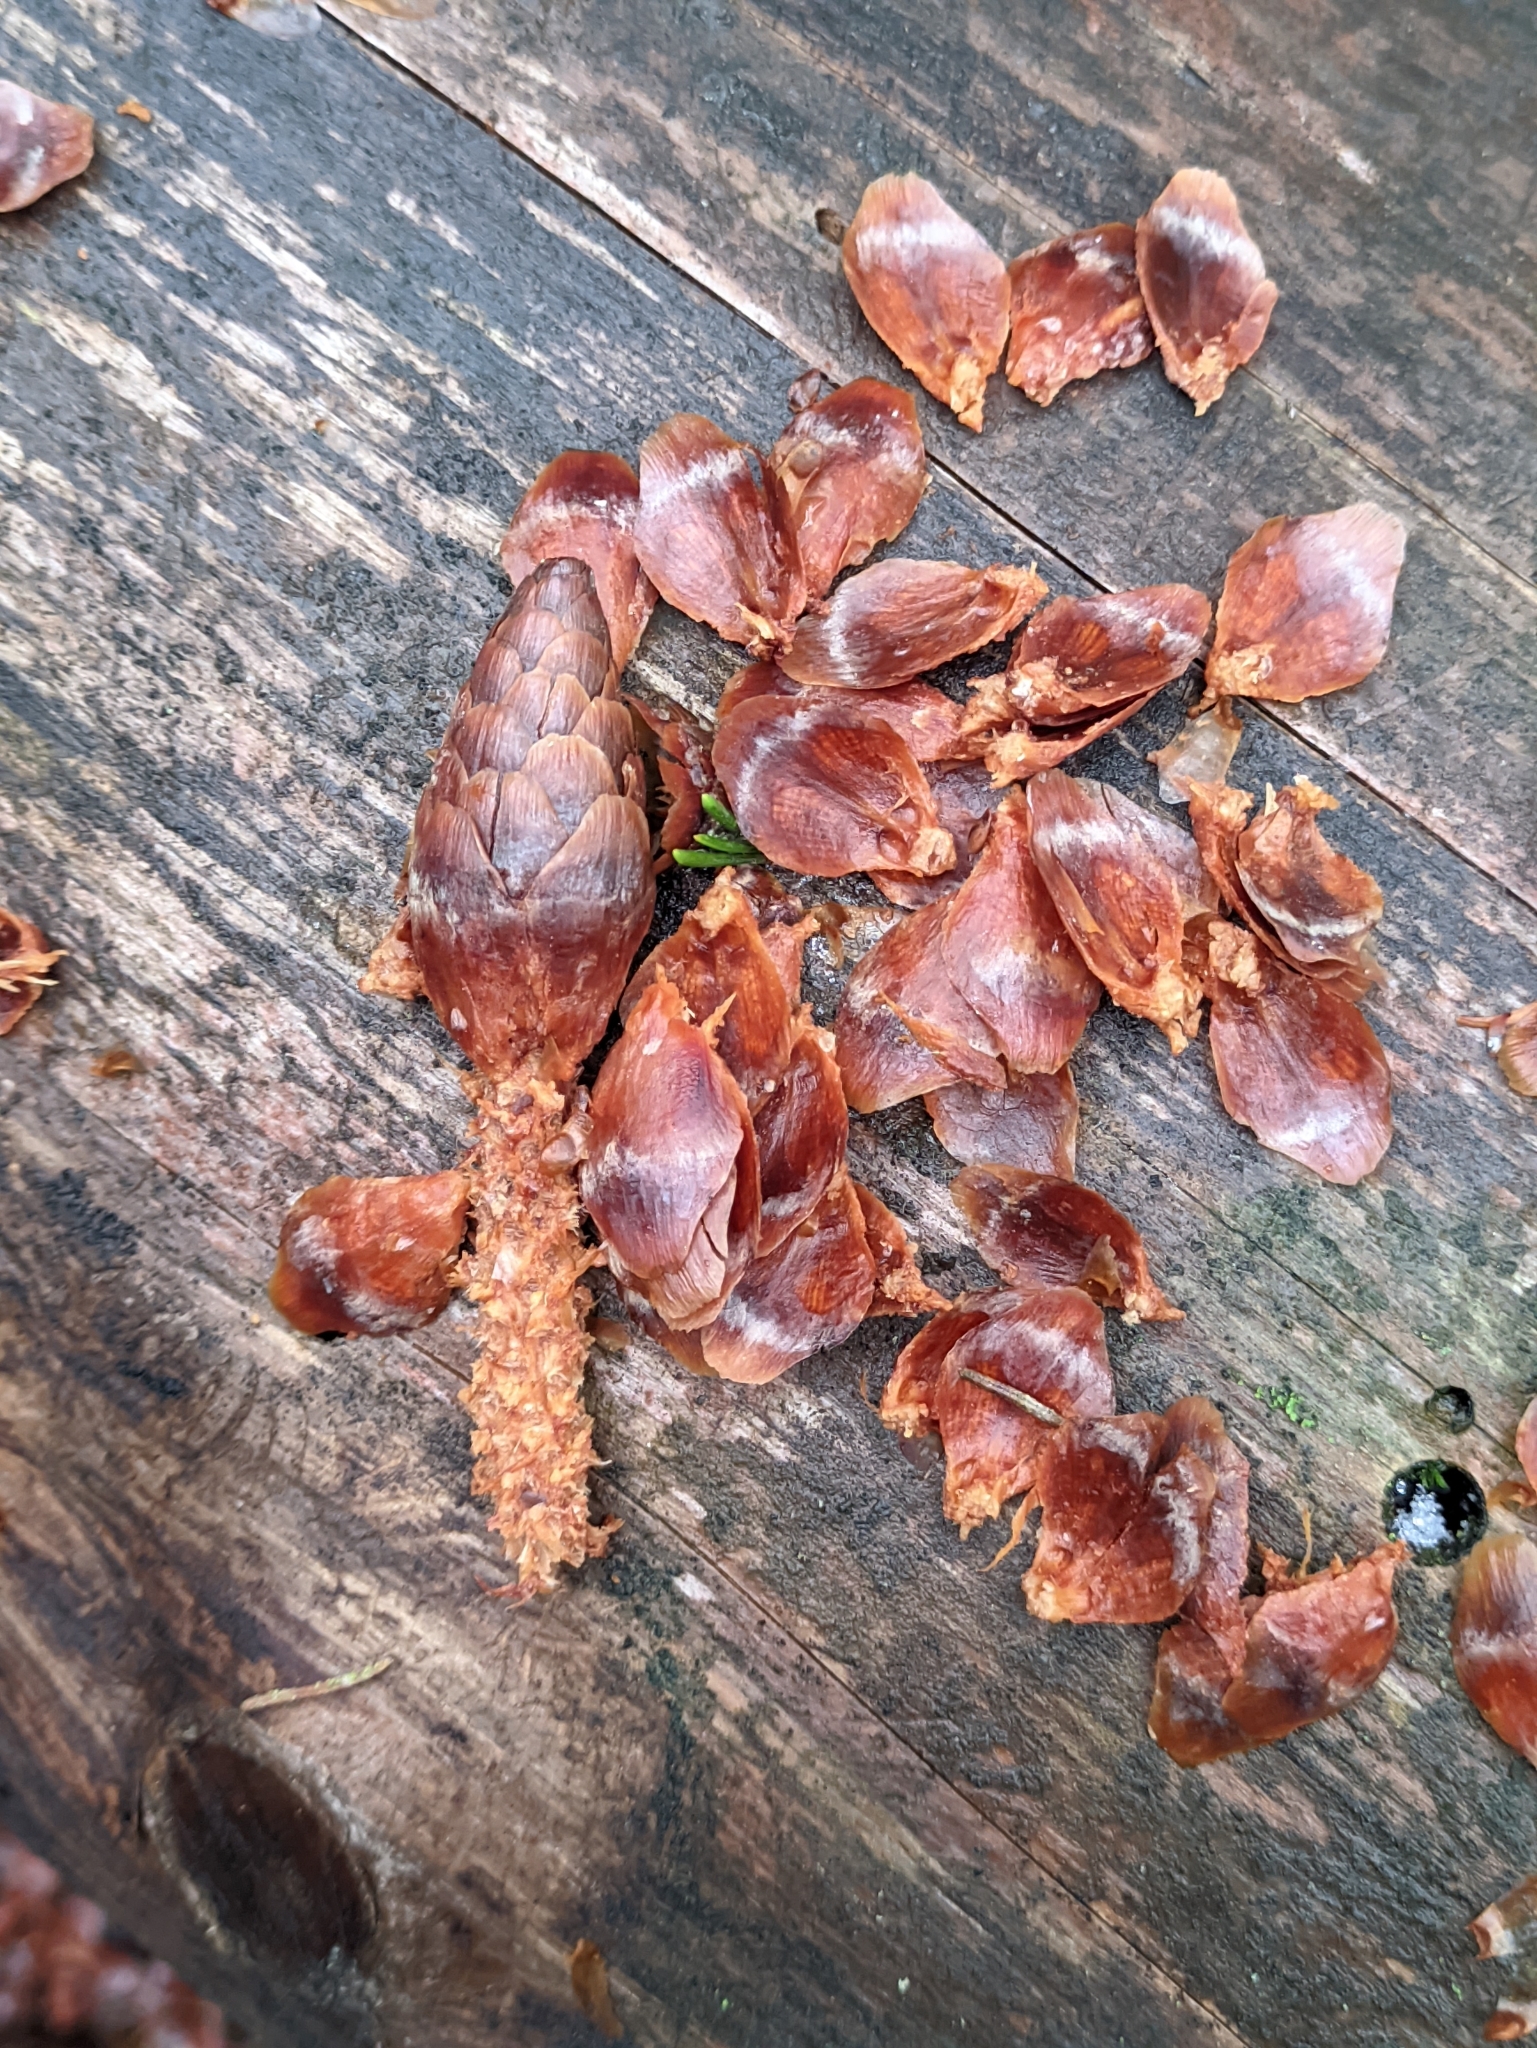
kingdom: Animalia
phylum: Chordata
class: Mammalia
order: Rodentia
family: Sciuridae
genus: Sciurus
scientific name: Sciurus vulgaris
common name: Eurasian red squirrel
